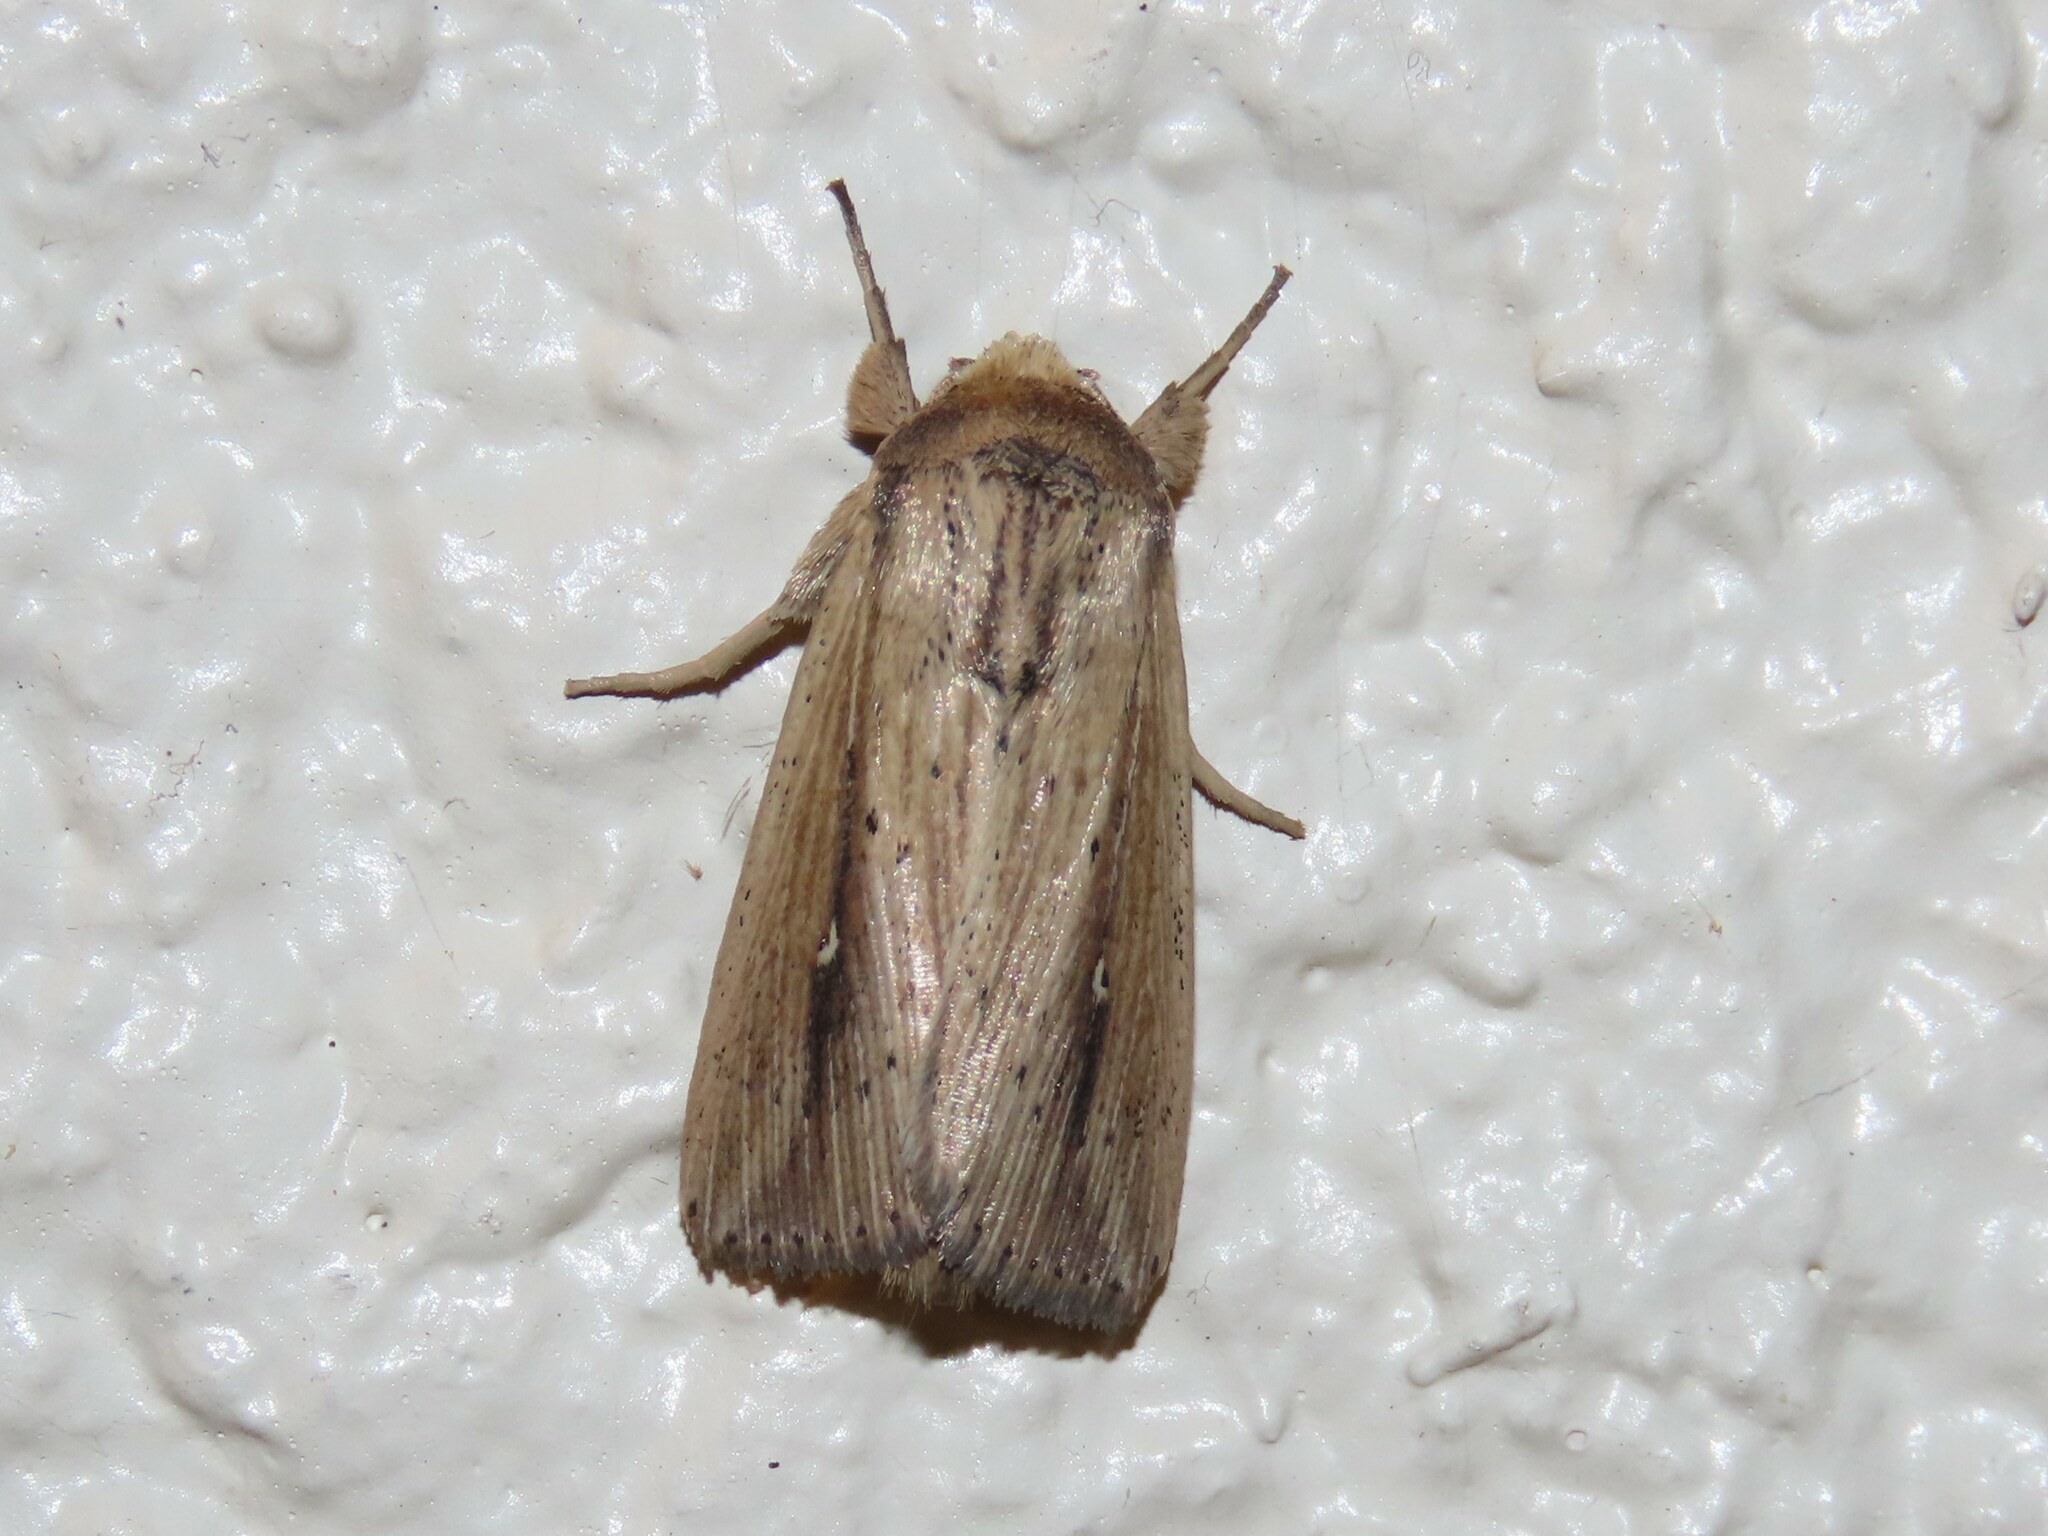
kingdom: Animalia
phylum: Arthropoda
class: Insecta
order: Lepidoptera
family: Noctuidae
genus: Leucania
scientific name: Leucania incognita
